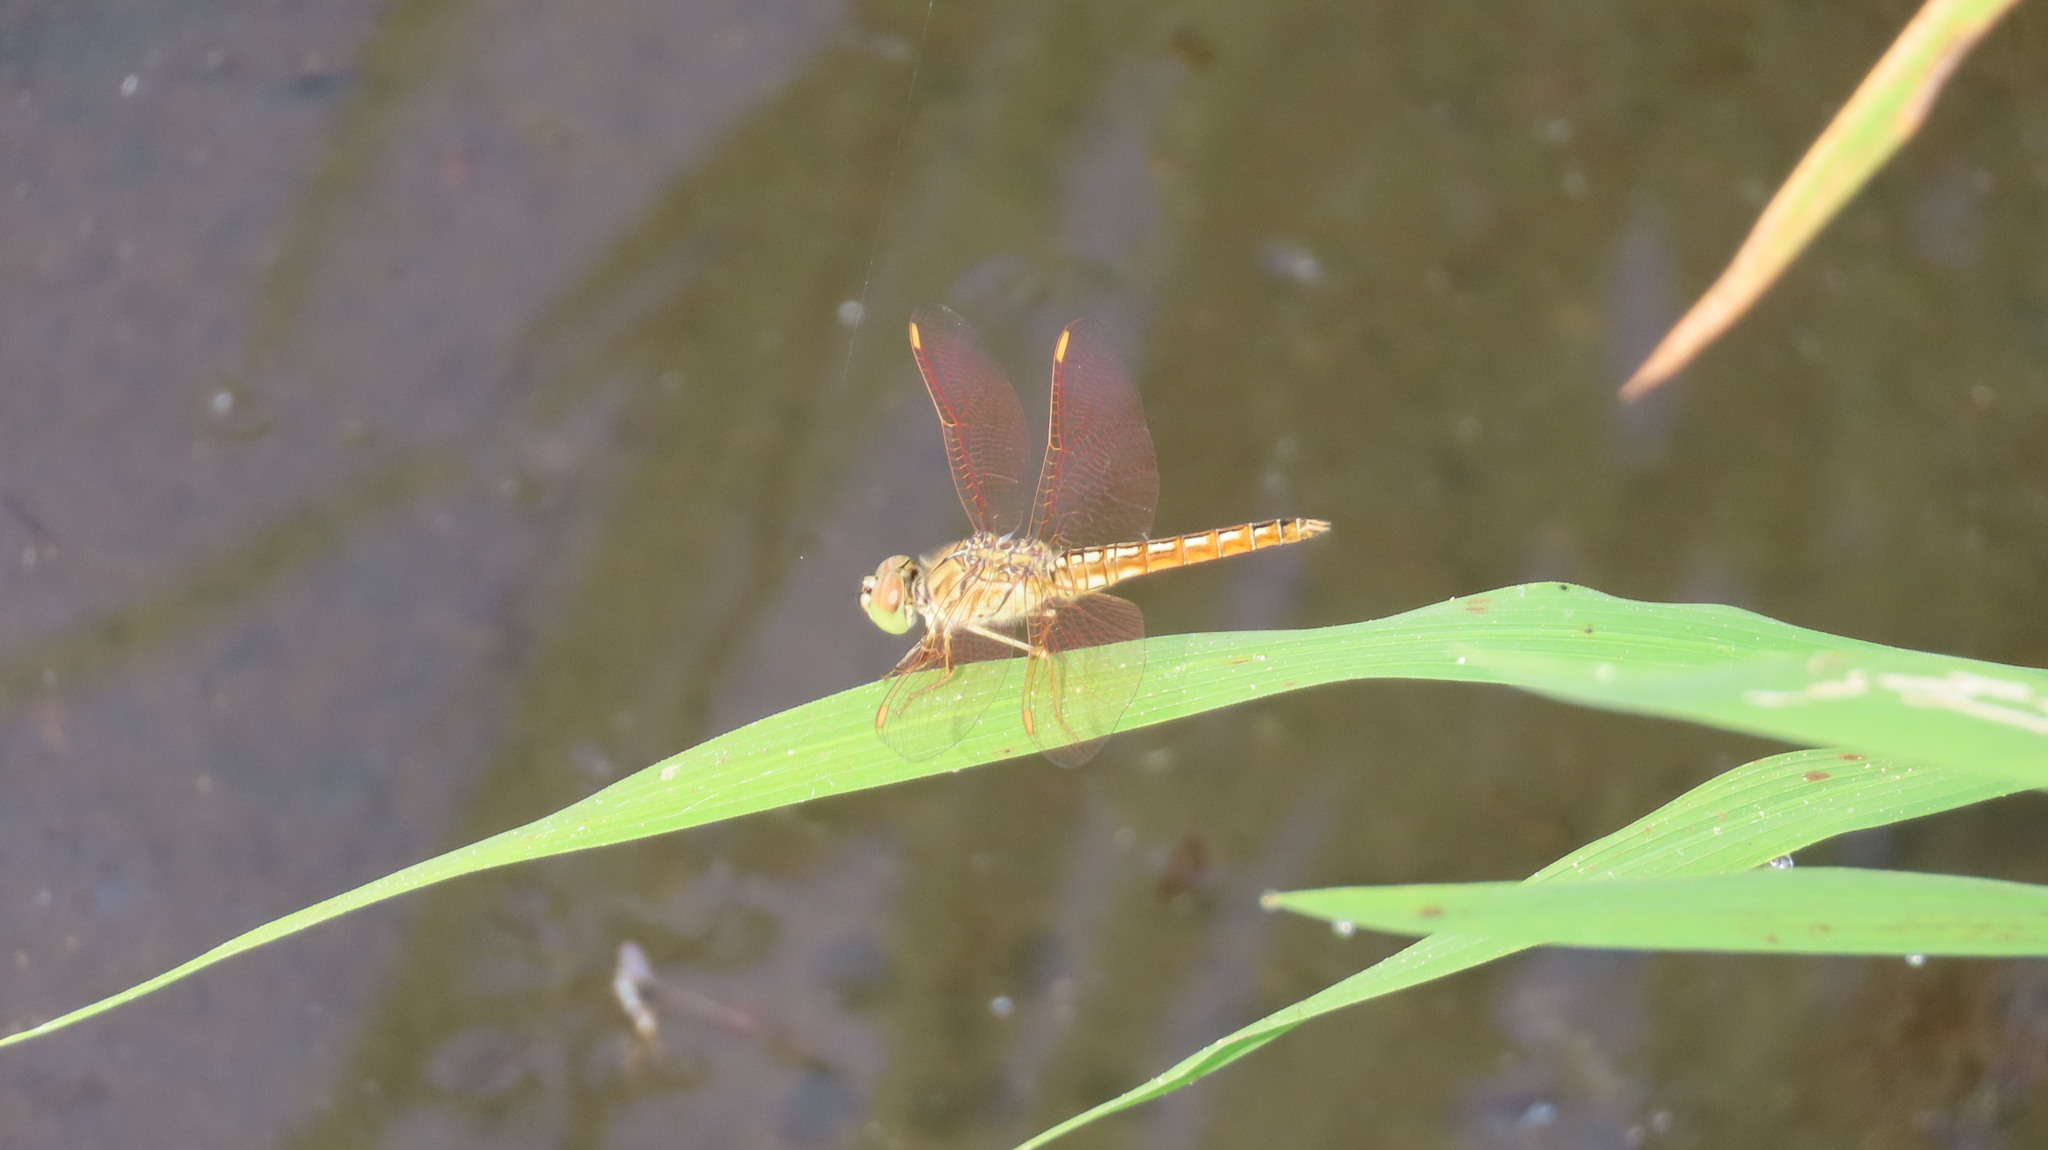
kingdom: Animalia
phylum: Arthropoda
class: Insecta
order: Odonata
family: Libellulidae
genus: Brachythemis
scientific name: Brachythemis contaminata
